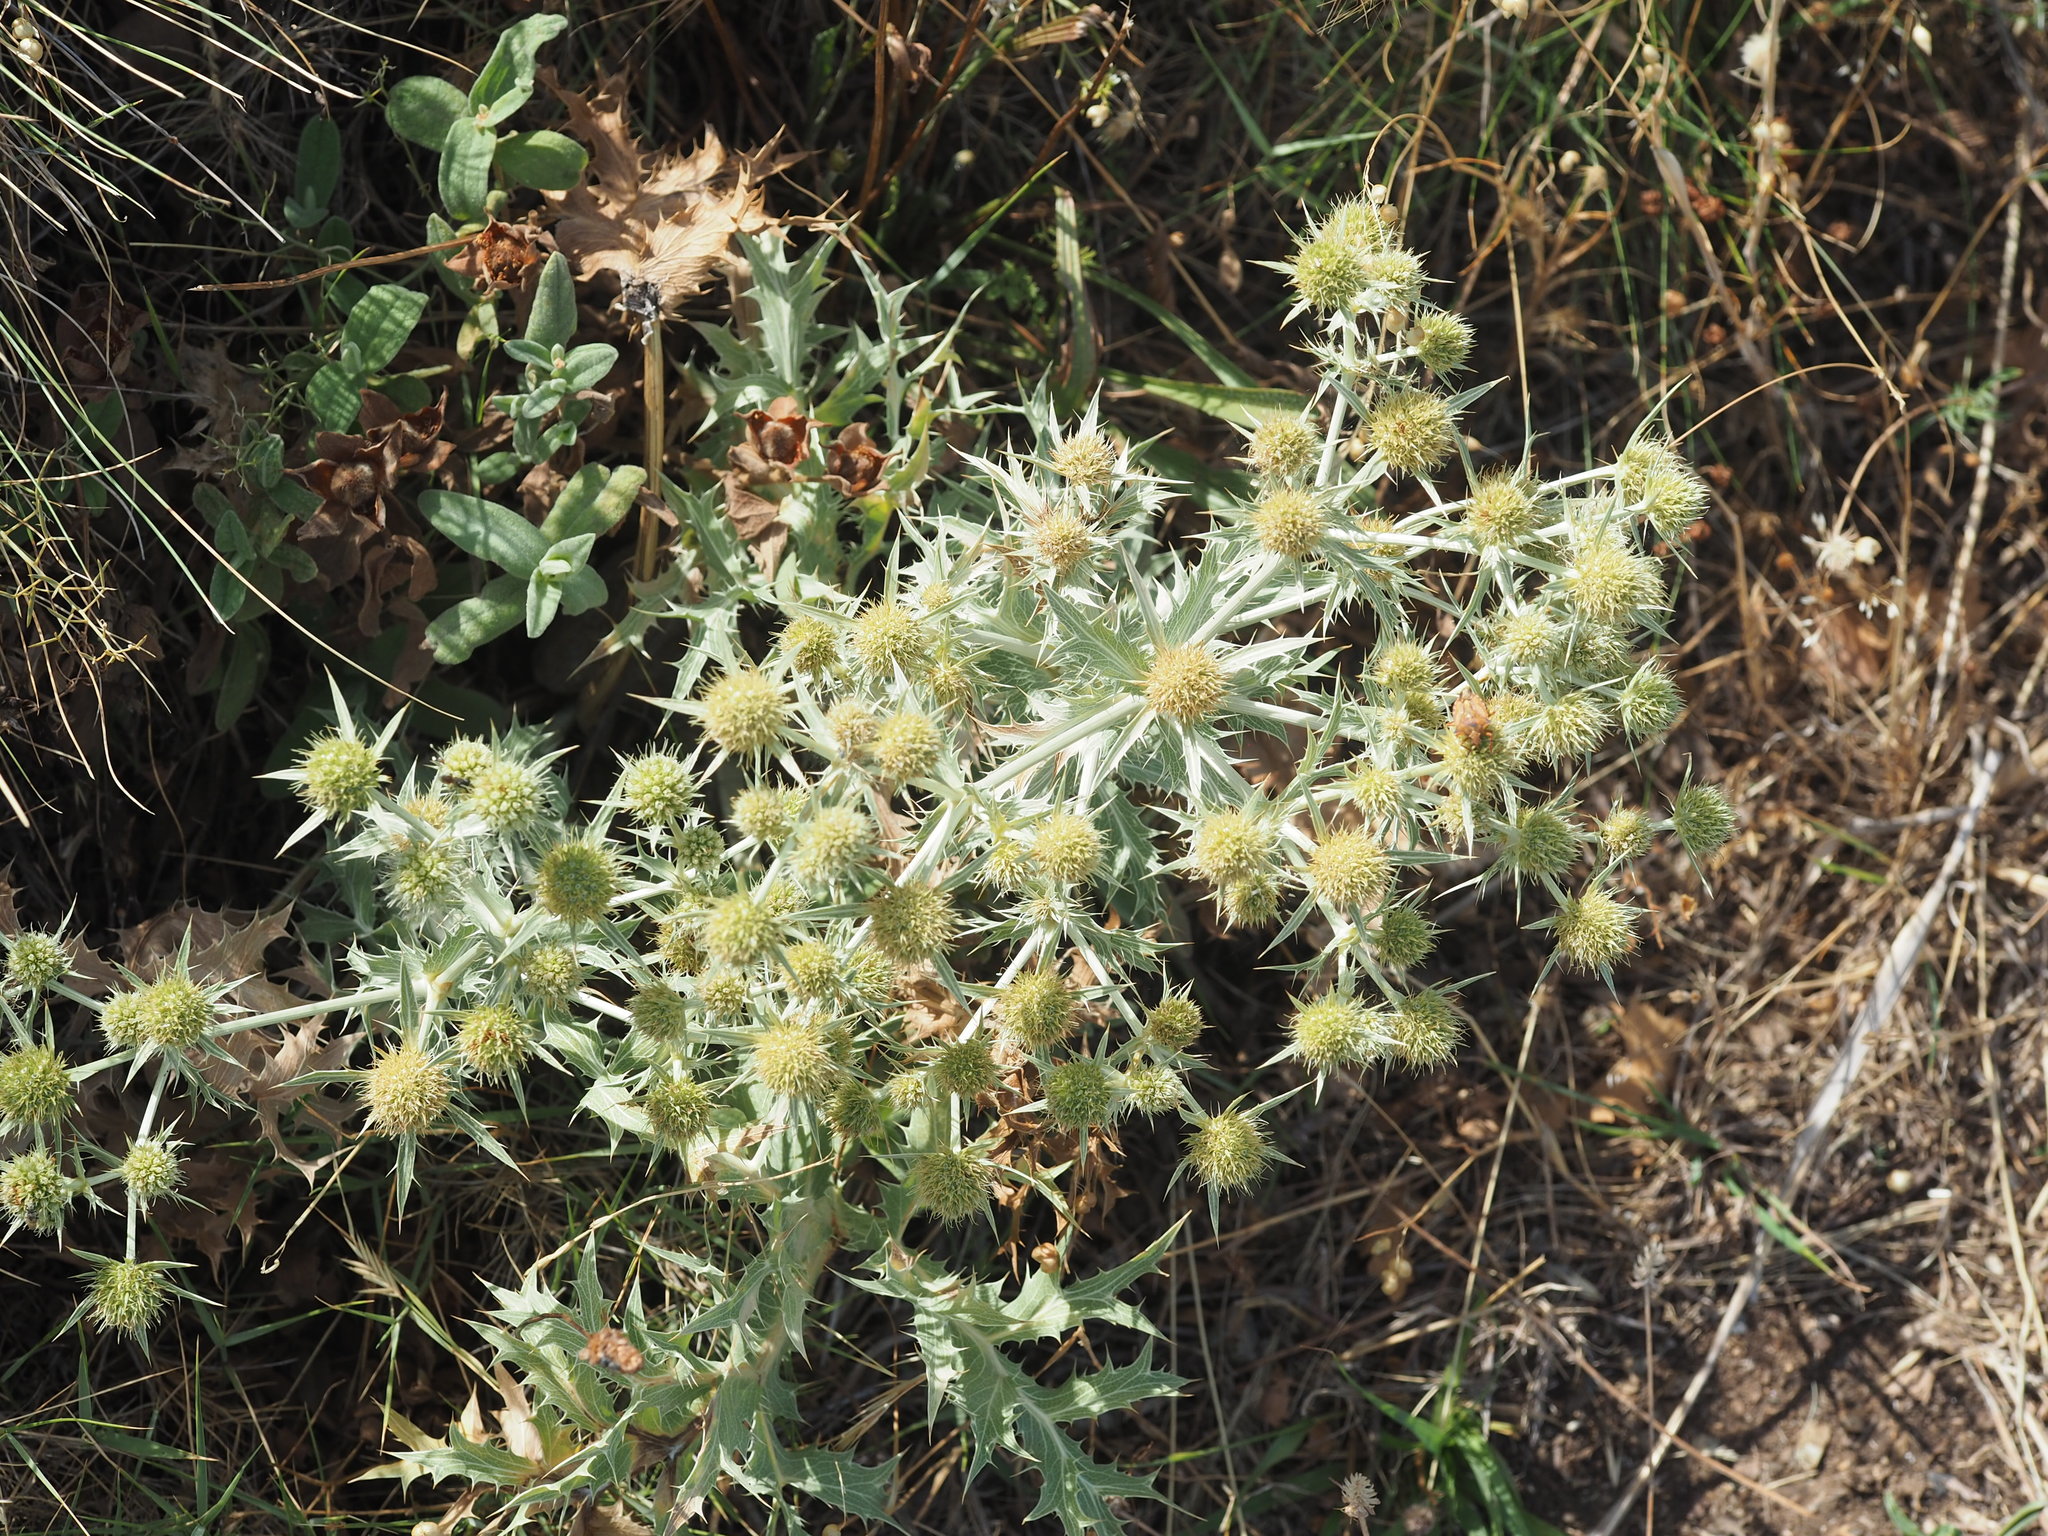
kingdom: Plantae
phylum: Tracheophyta
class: Magnoliopsida
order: Apiales
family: Apiaceae
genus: Eryngium
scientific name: Eryngium campestre
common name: Field eryngo
